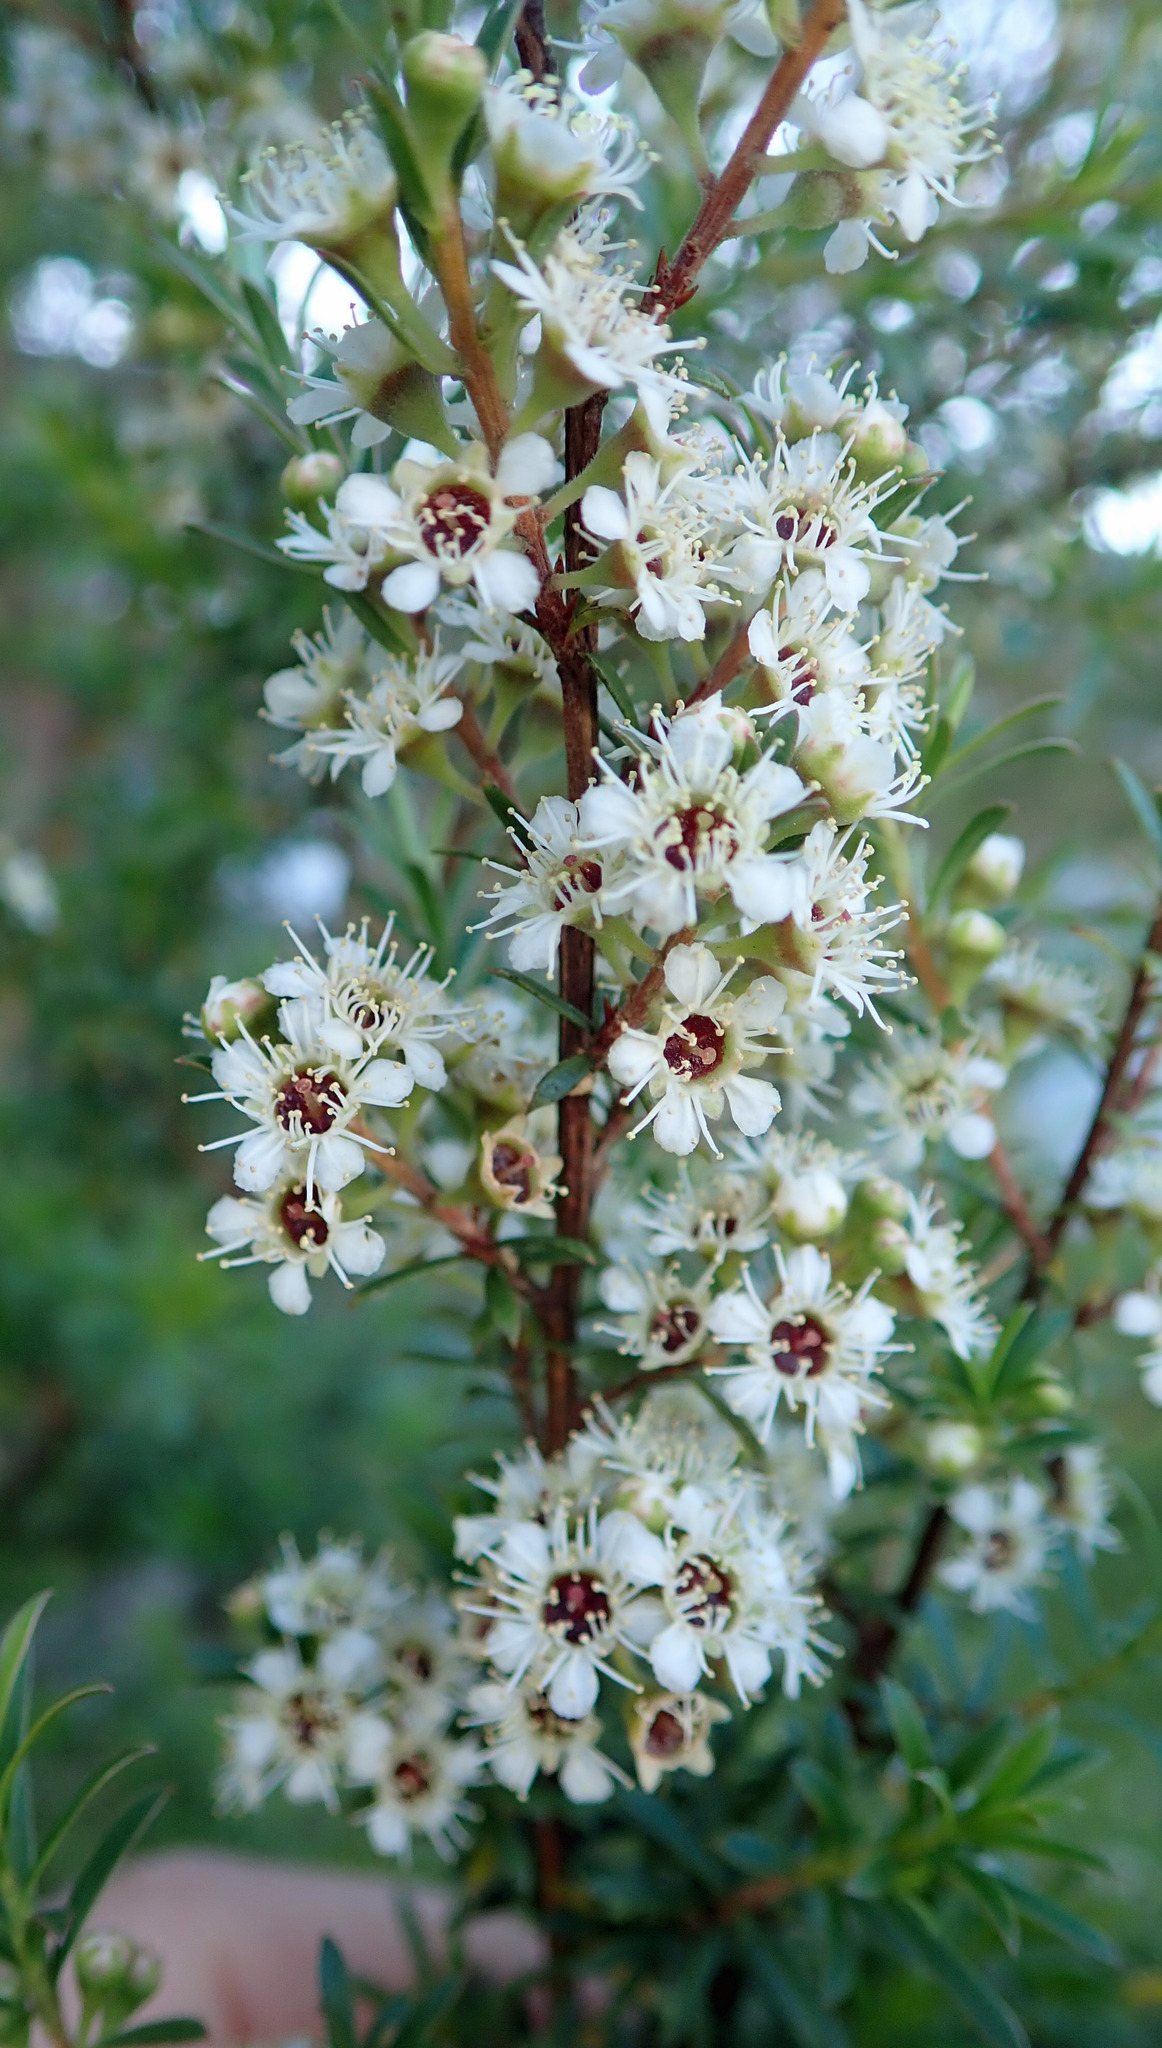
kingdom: Plantae
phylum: Tracheophyta
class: Magnoliopsida
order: Myrtales
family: Myrtaceae
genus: Kunzea
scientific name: Kunzea robusta
